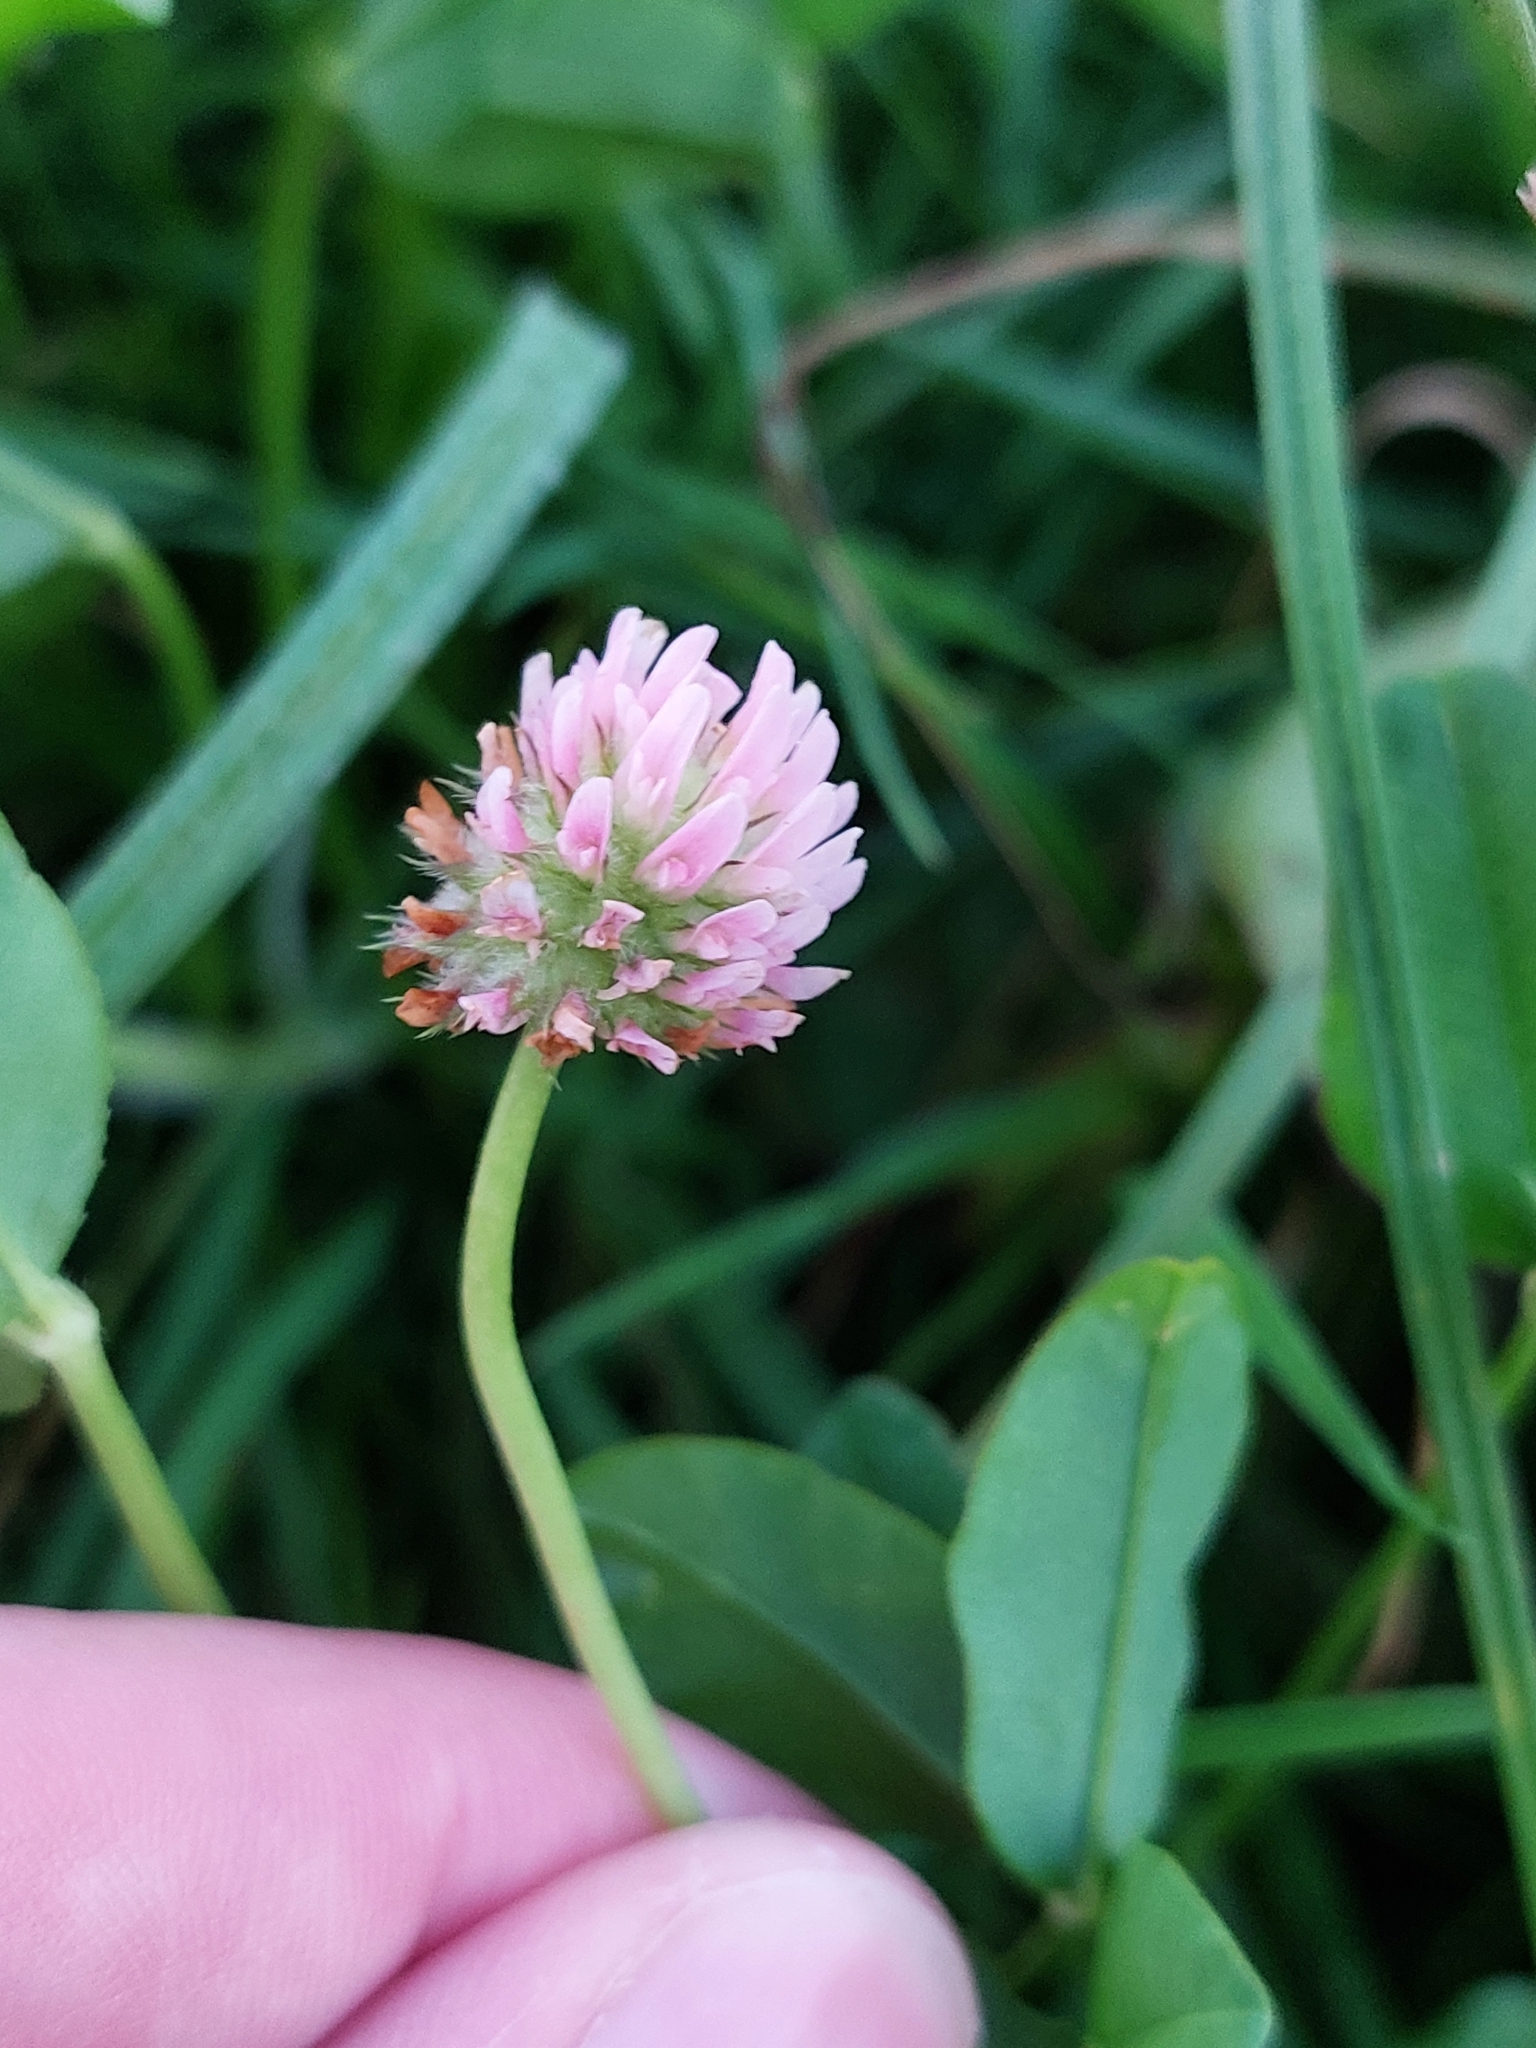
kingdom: Plantae
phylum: Tracheophyta
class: Magnoliopsida
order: Fabales
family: Fabaceae
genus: Trifolium
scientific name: Trifolium fragiferum
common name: Strawberry clover
